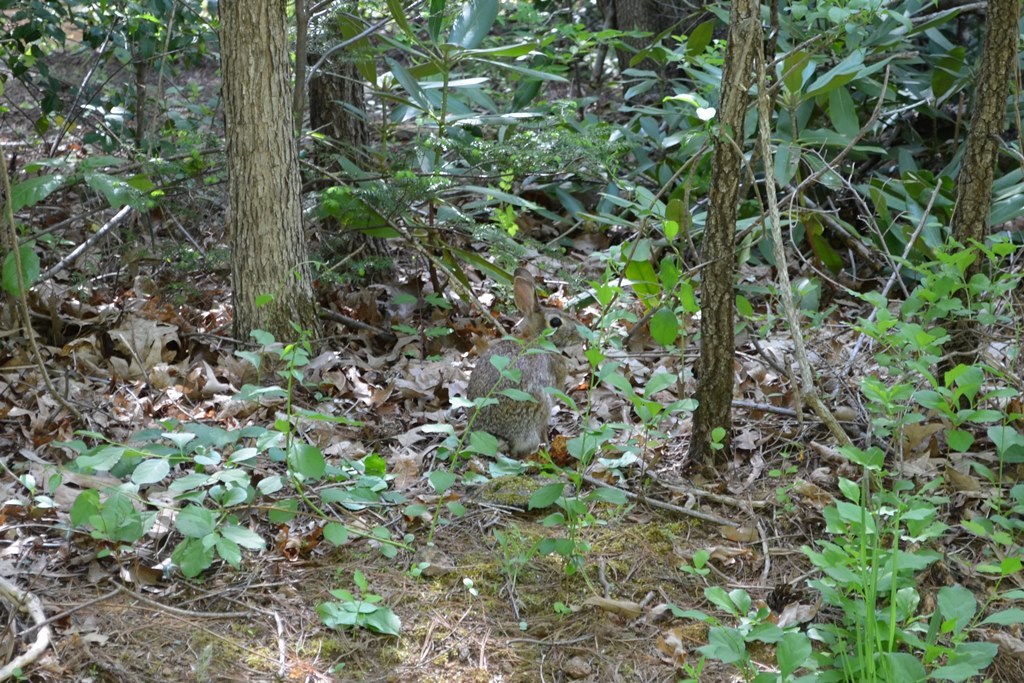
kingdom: Animalia
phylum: Chordata
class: Mammalia
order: Lagomorpha
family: Leporidae
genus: Sylvilagus
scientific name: Sylvilagus floridanus
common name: Eastern cottontail
